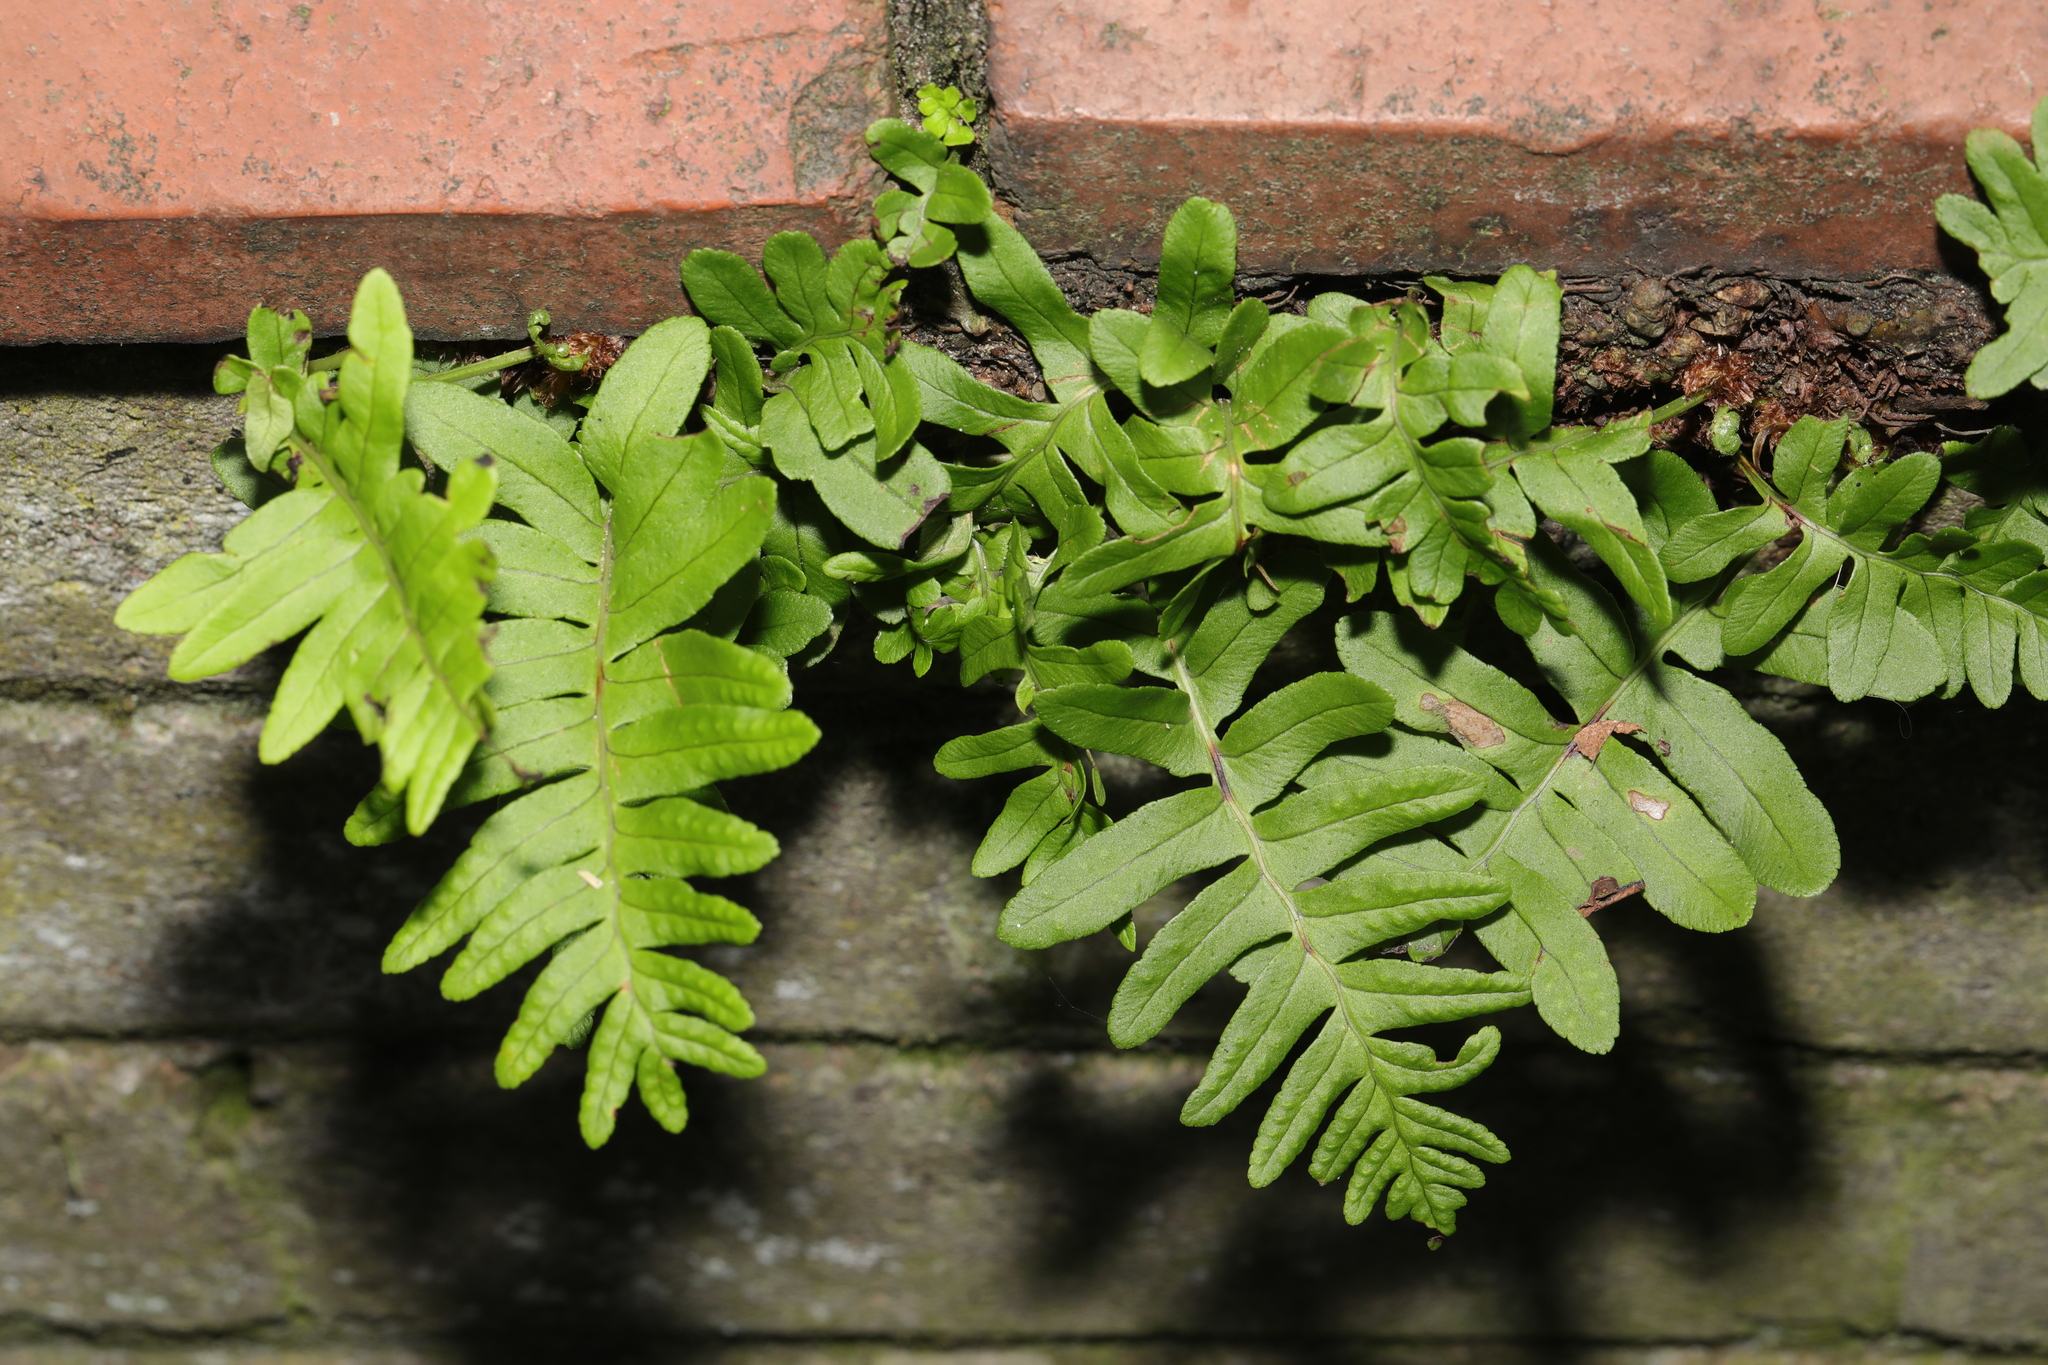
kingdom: Plantae
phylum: Tracheophyta
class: Polypodiopsida
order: Polypodiales
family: Polypodiaceae
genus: Polypodium
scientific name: Polypodium vulgare
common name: Common polypody
